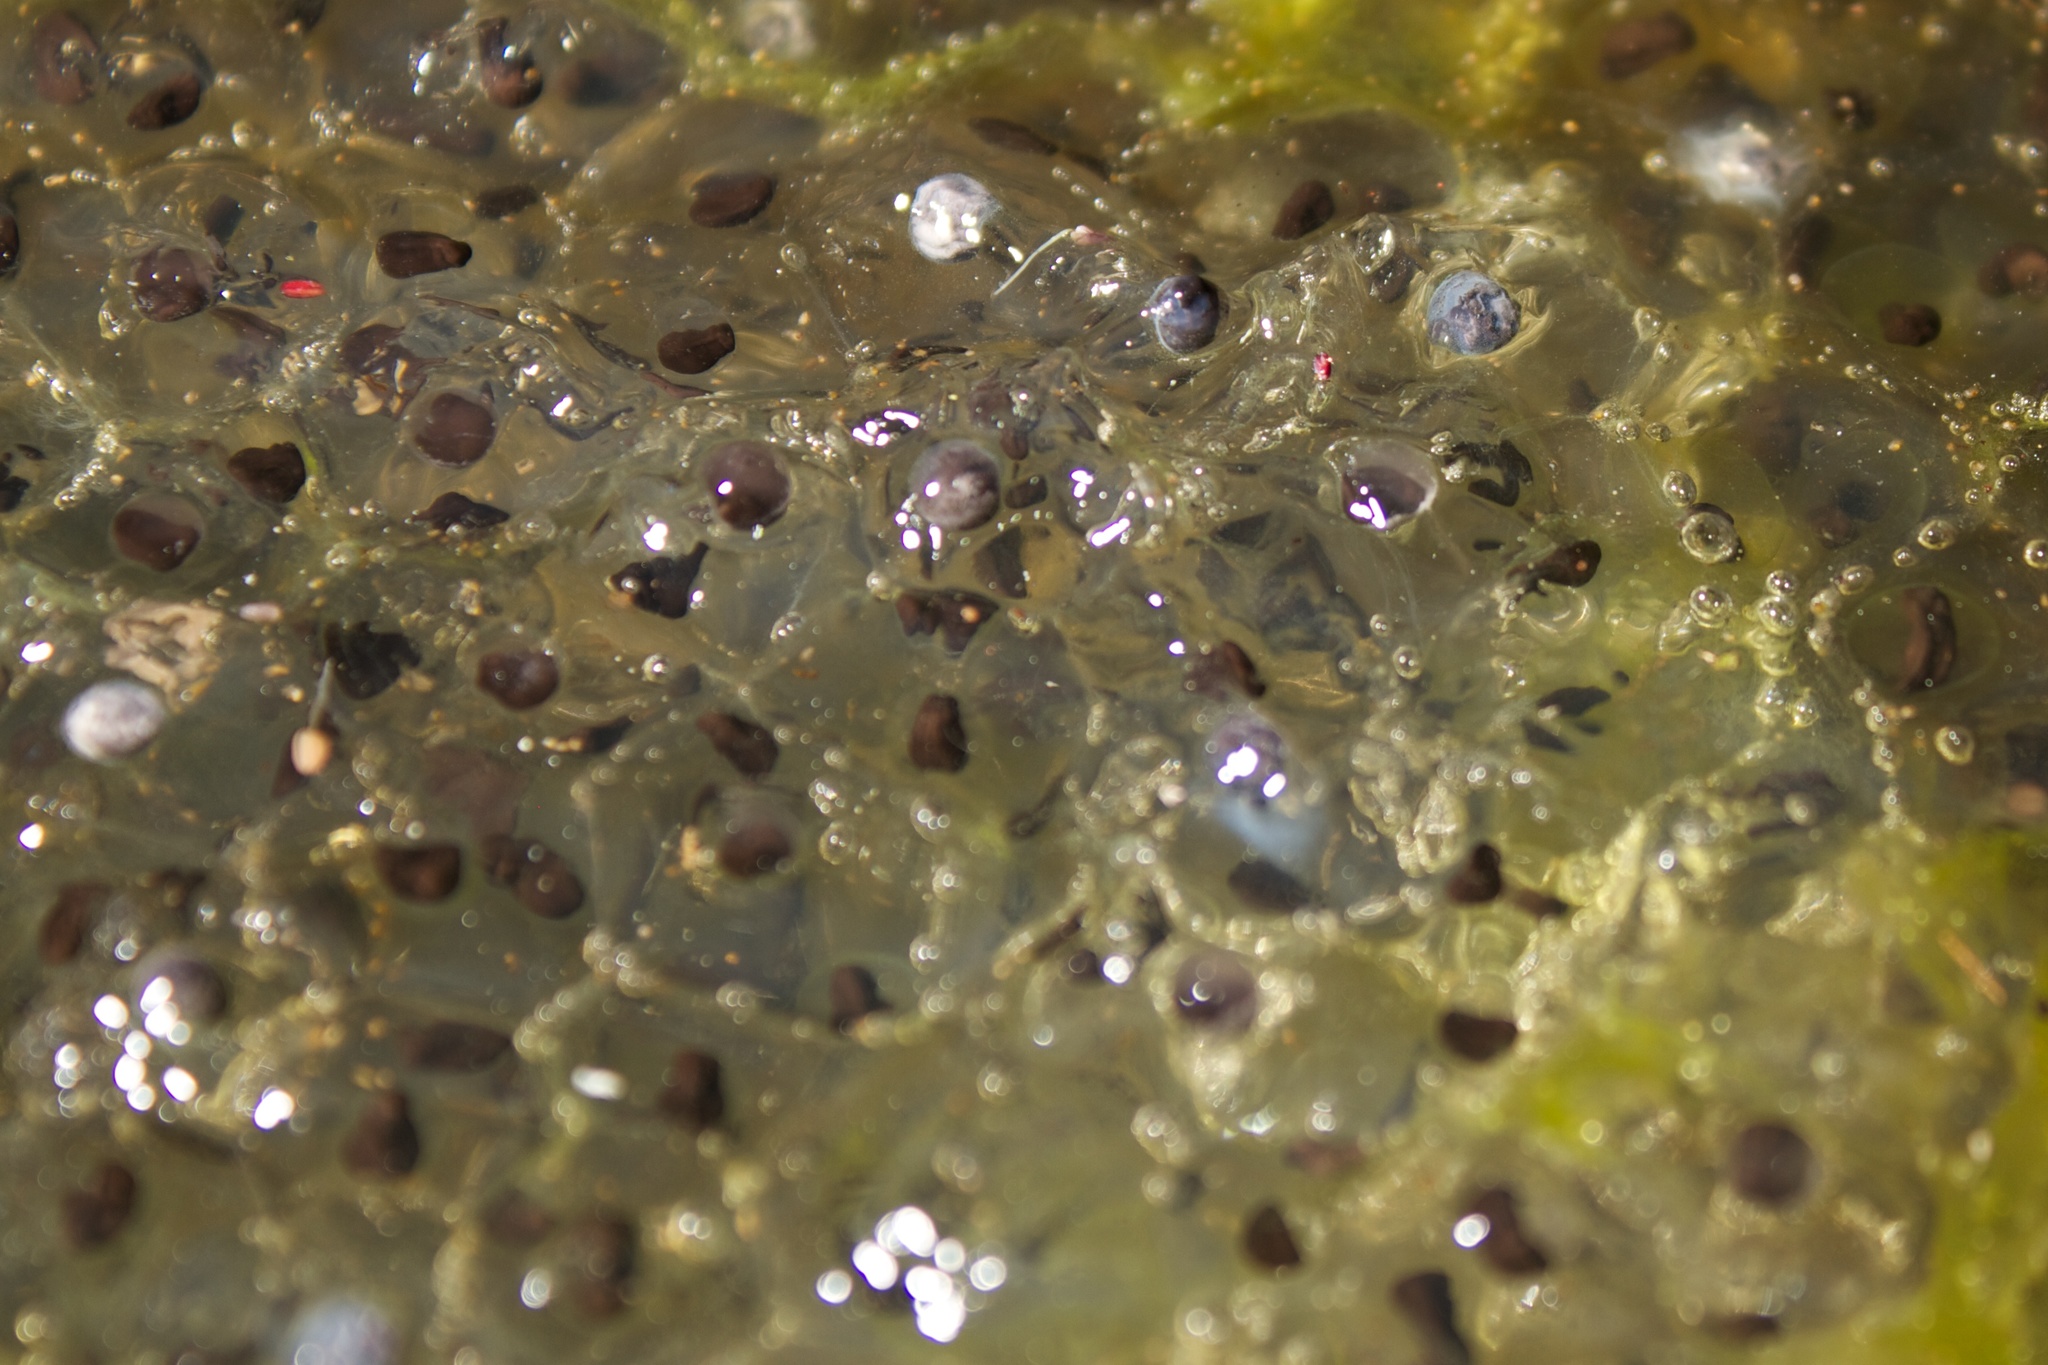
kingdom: Animalia
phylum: Chordata
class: Amphibia
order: Anura
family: Ranidae
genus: Lithobates
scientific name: Lithobates sylvaticus
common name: Wood frog
